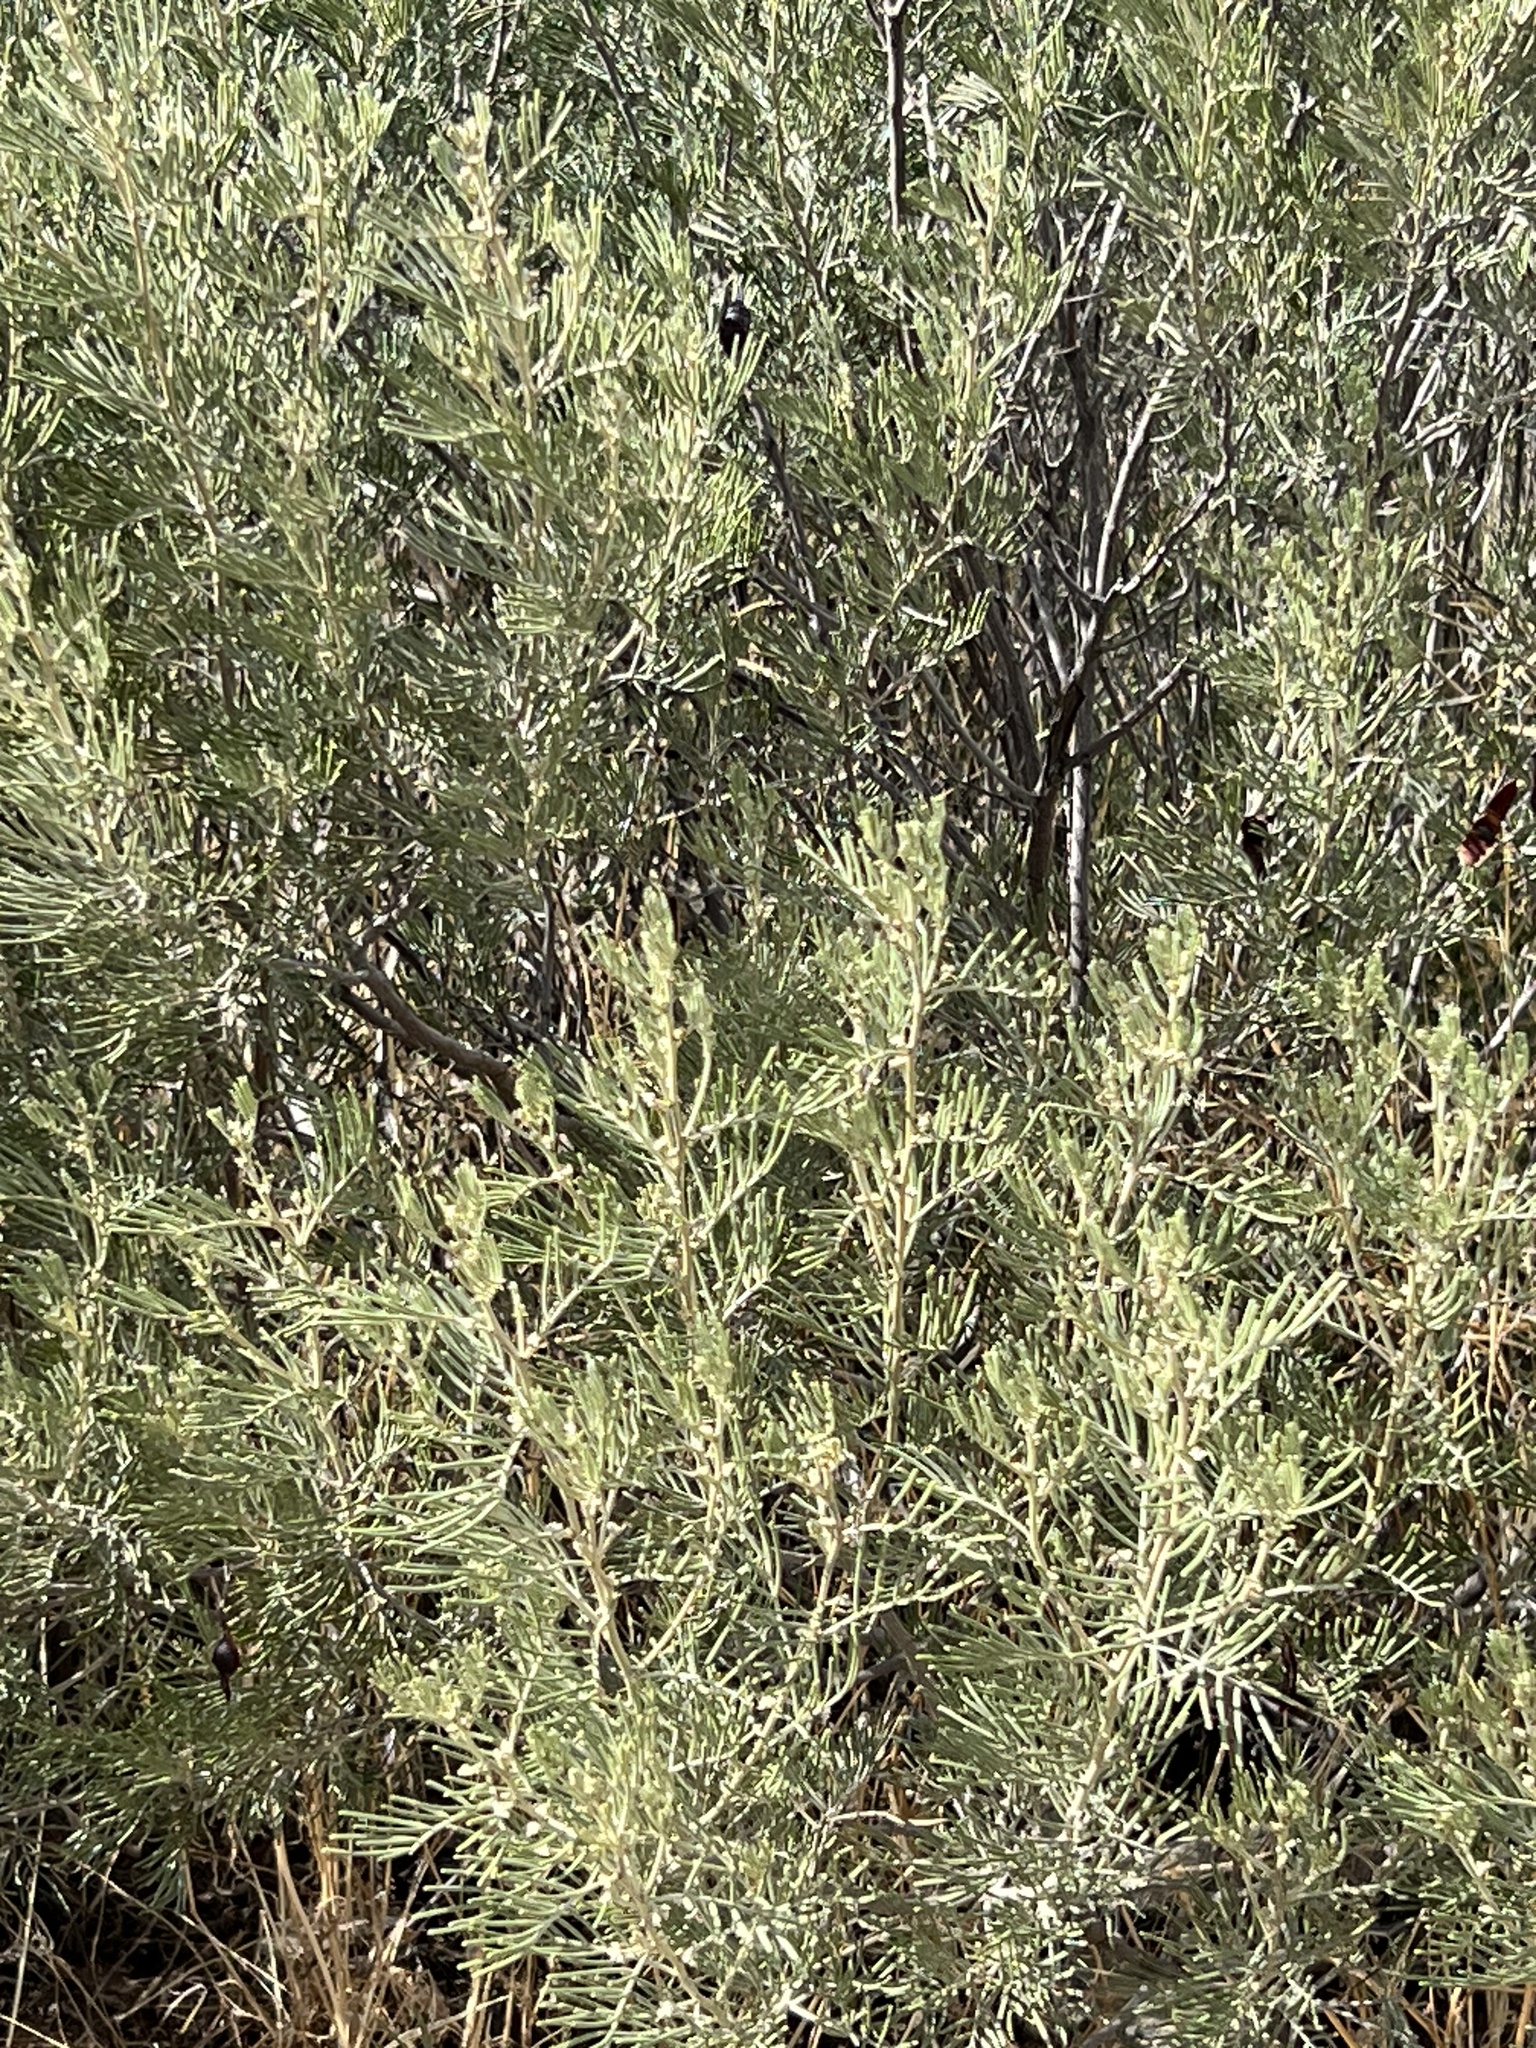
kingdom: Plantae
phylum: Tracheophyta
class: Magnoliopsida
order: Fabales
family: Fabaceae
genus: Senna
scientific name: Senna artemisioides
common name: Burnt-leaved acacia
